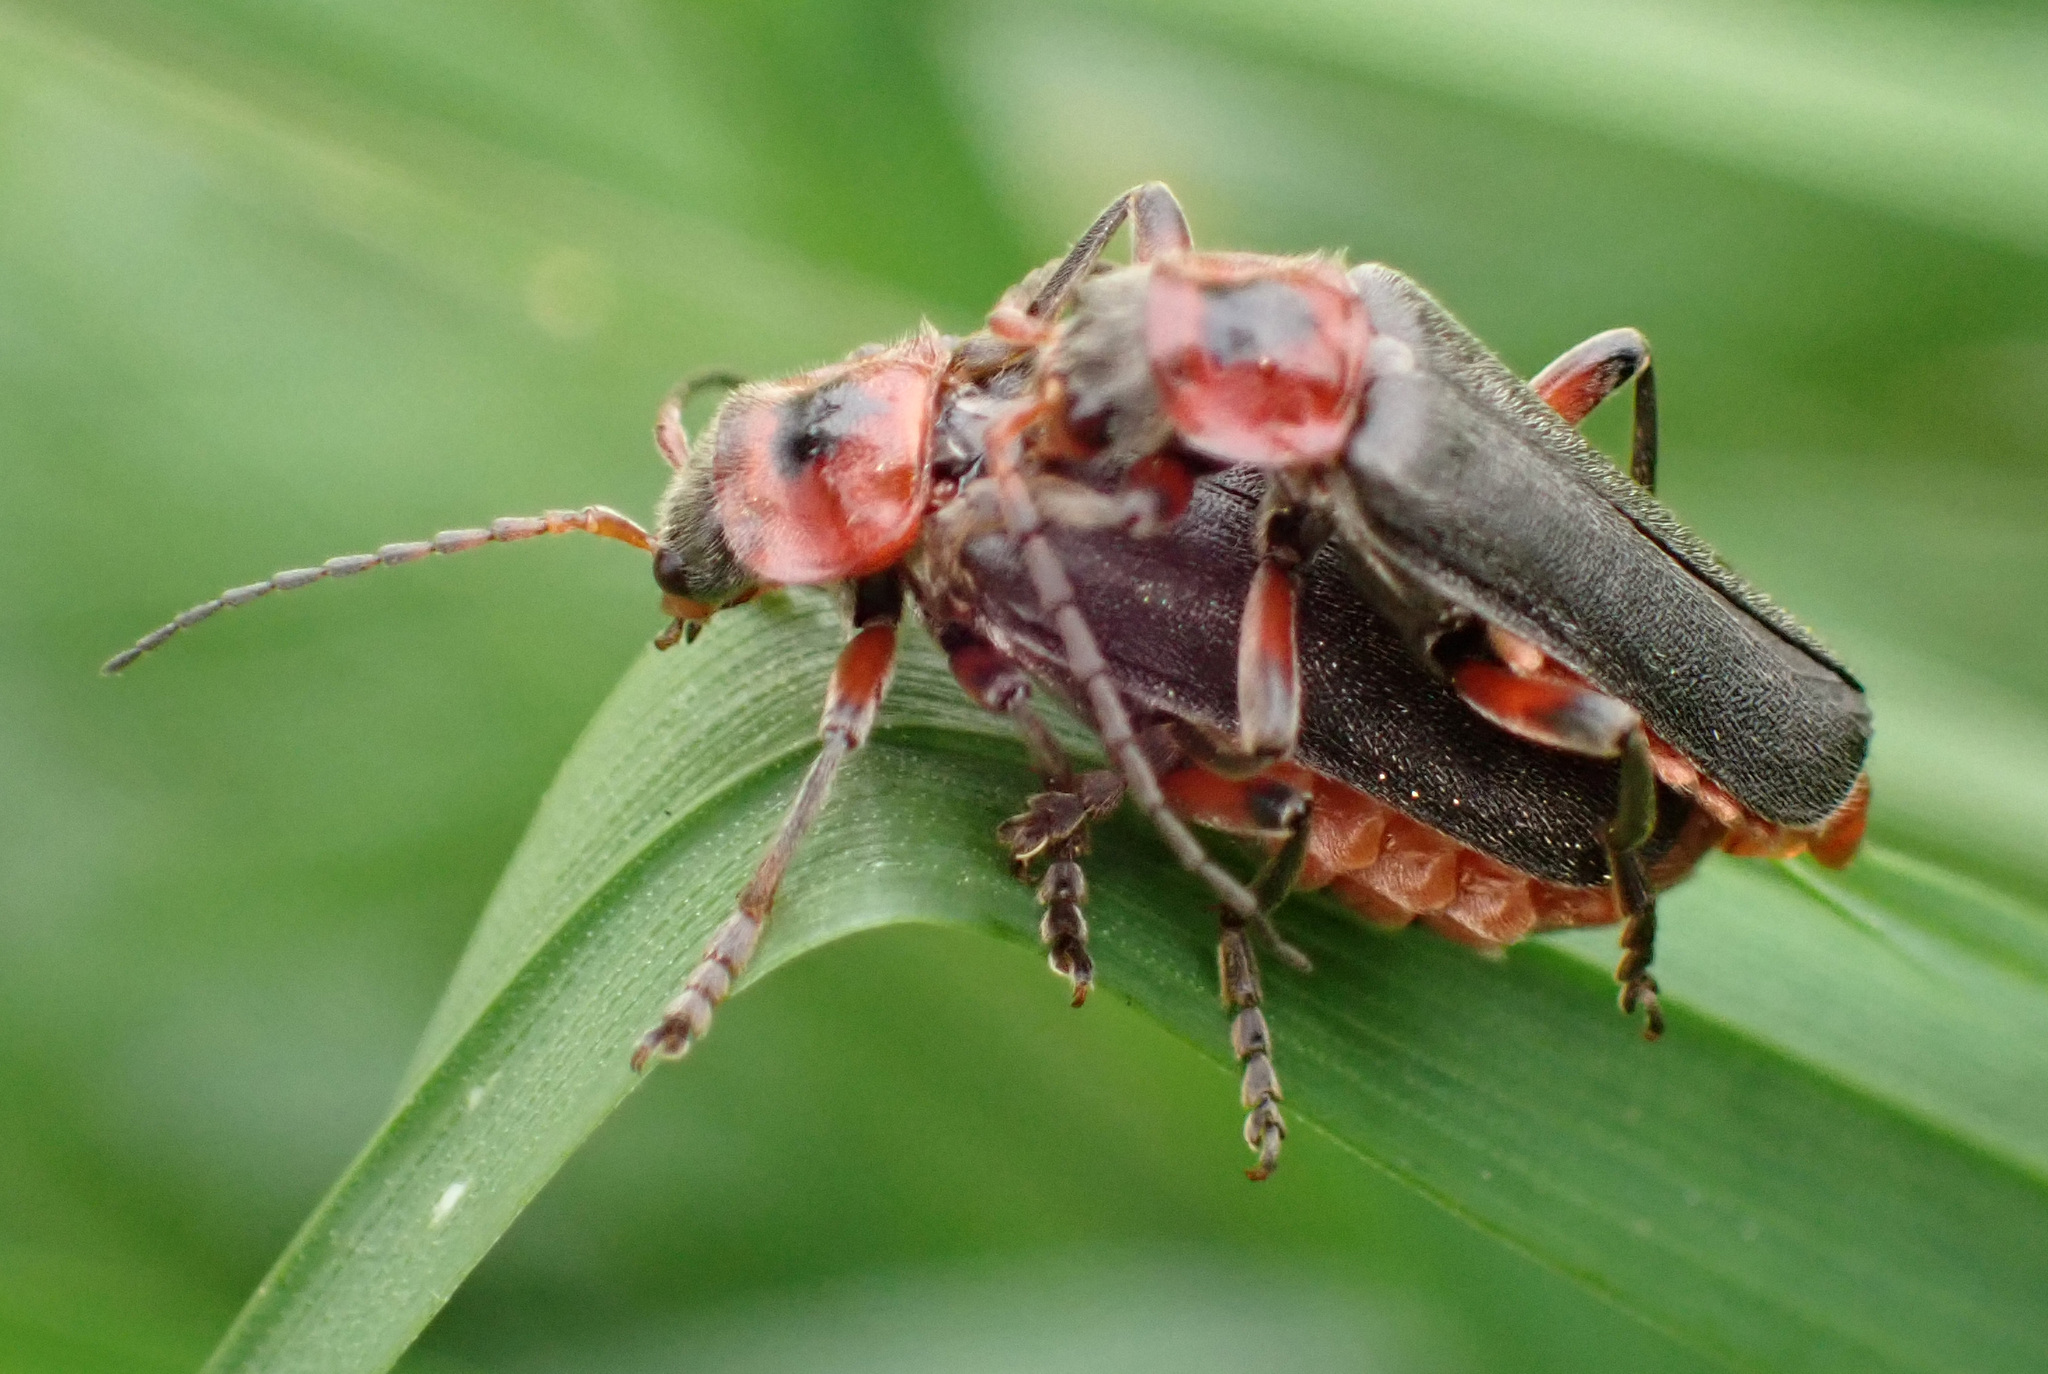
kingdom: Animalia
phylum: Arthropoda
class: Insecta
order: Coleoptera
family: Cantharidae
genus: Cantharis
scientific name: Cantharis rustica
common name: Soldier beetle
